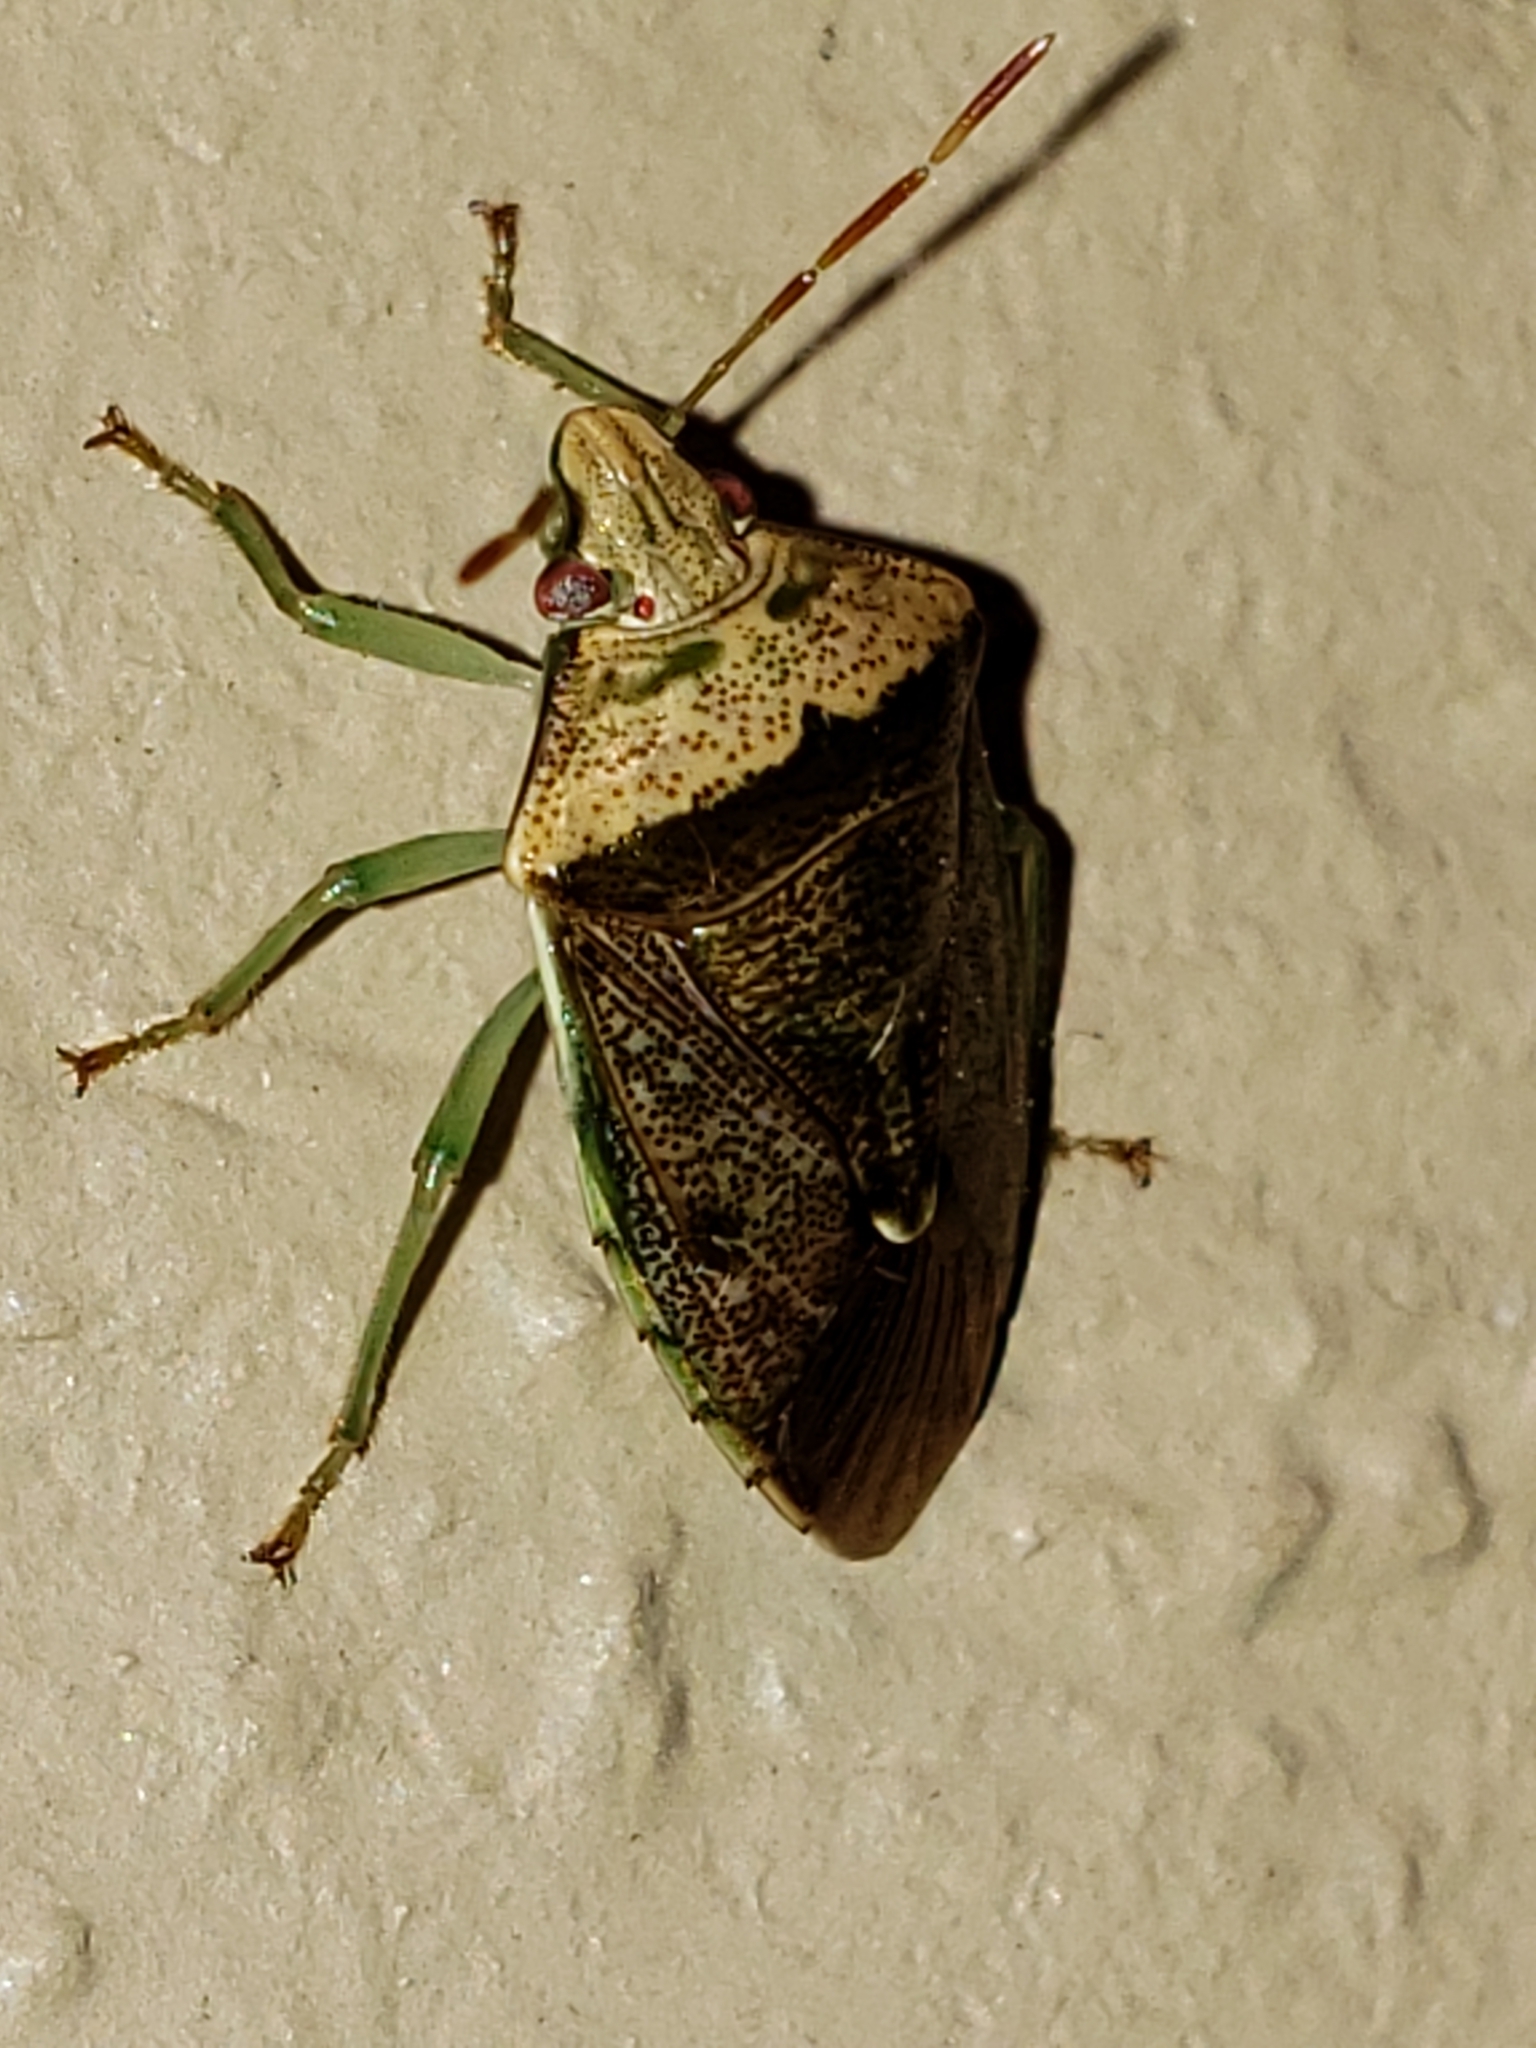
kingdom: Animalia
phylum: Arthropoda
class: Insecta
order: Hemiptera
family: Pentatomidae
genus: Banasa
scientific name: Banasa calva
